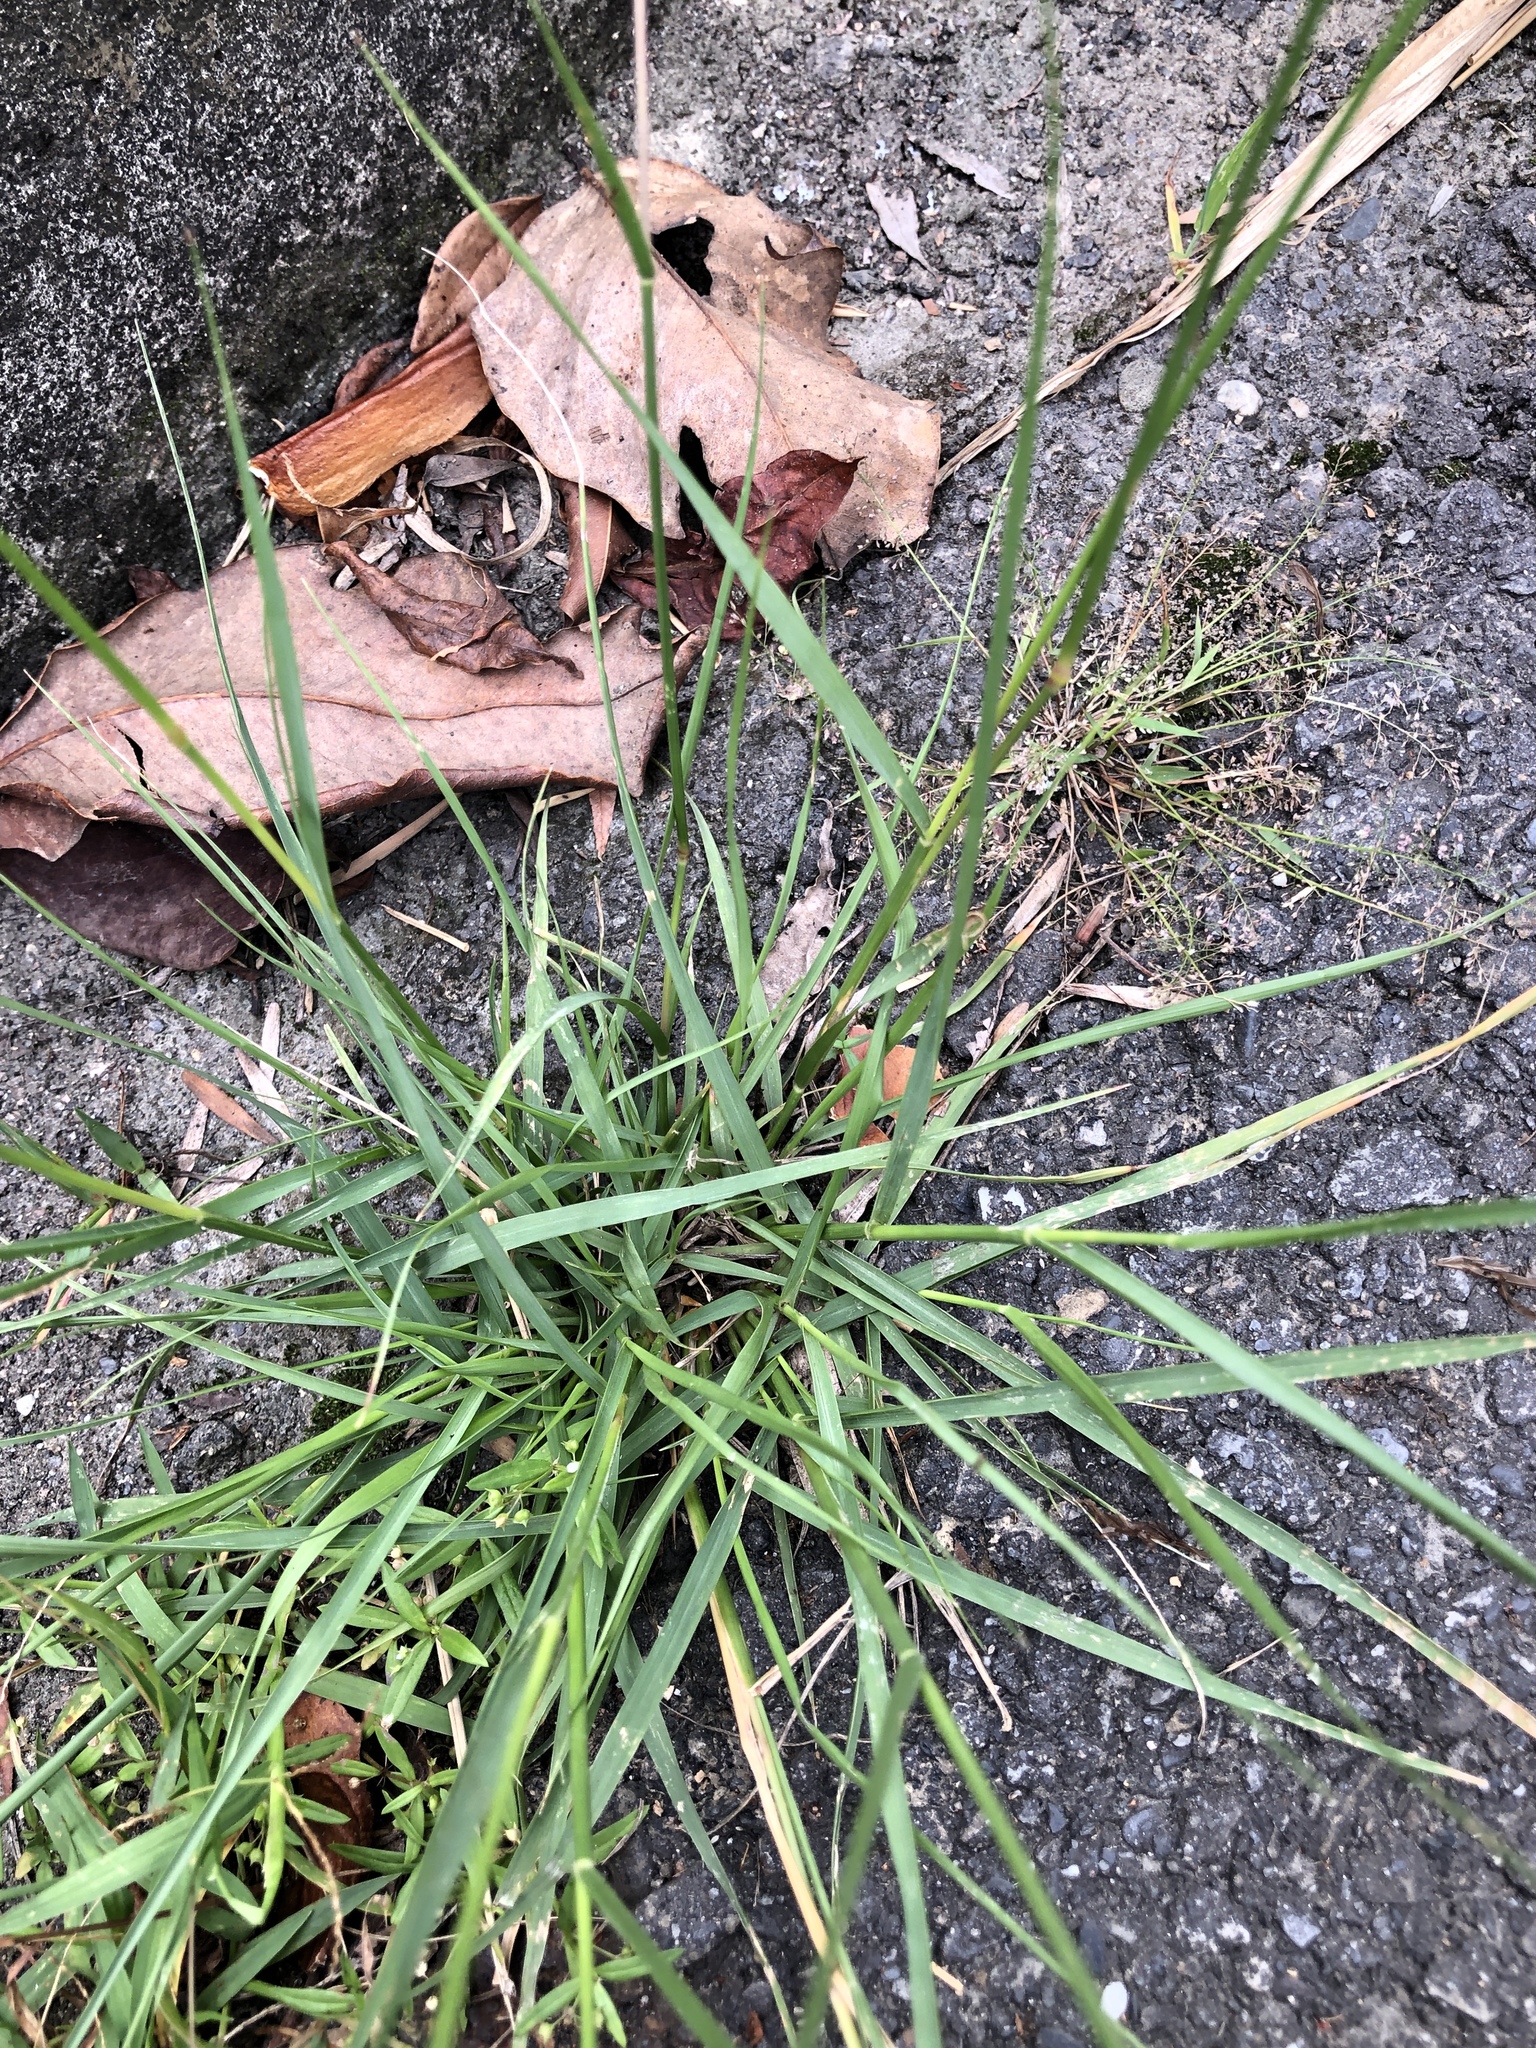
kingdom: Plantae
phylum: Tracheophyta
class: Liliopsida
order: Poales
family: Poaceae
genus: Sporobolus
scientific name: Sporobolus indicus
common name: Smut grass
